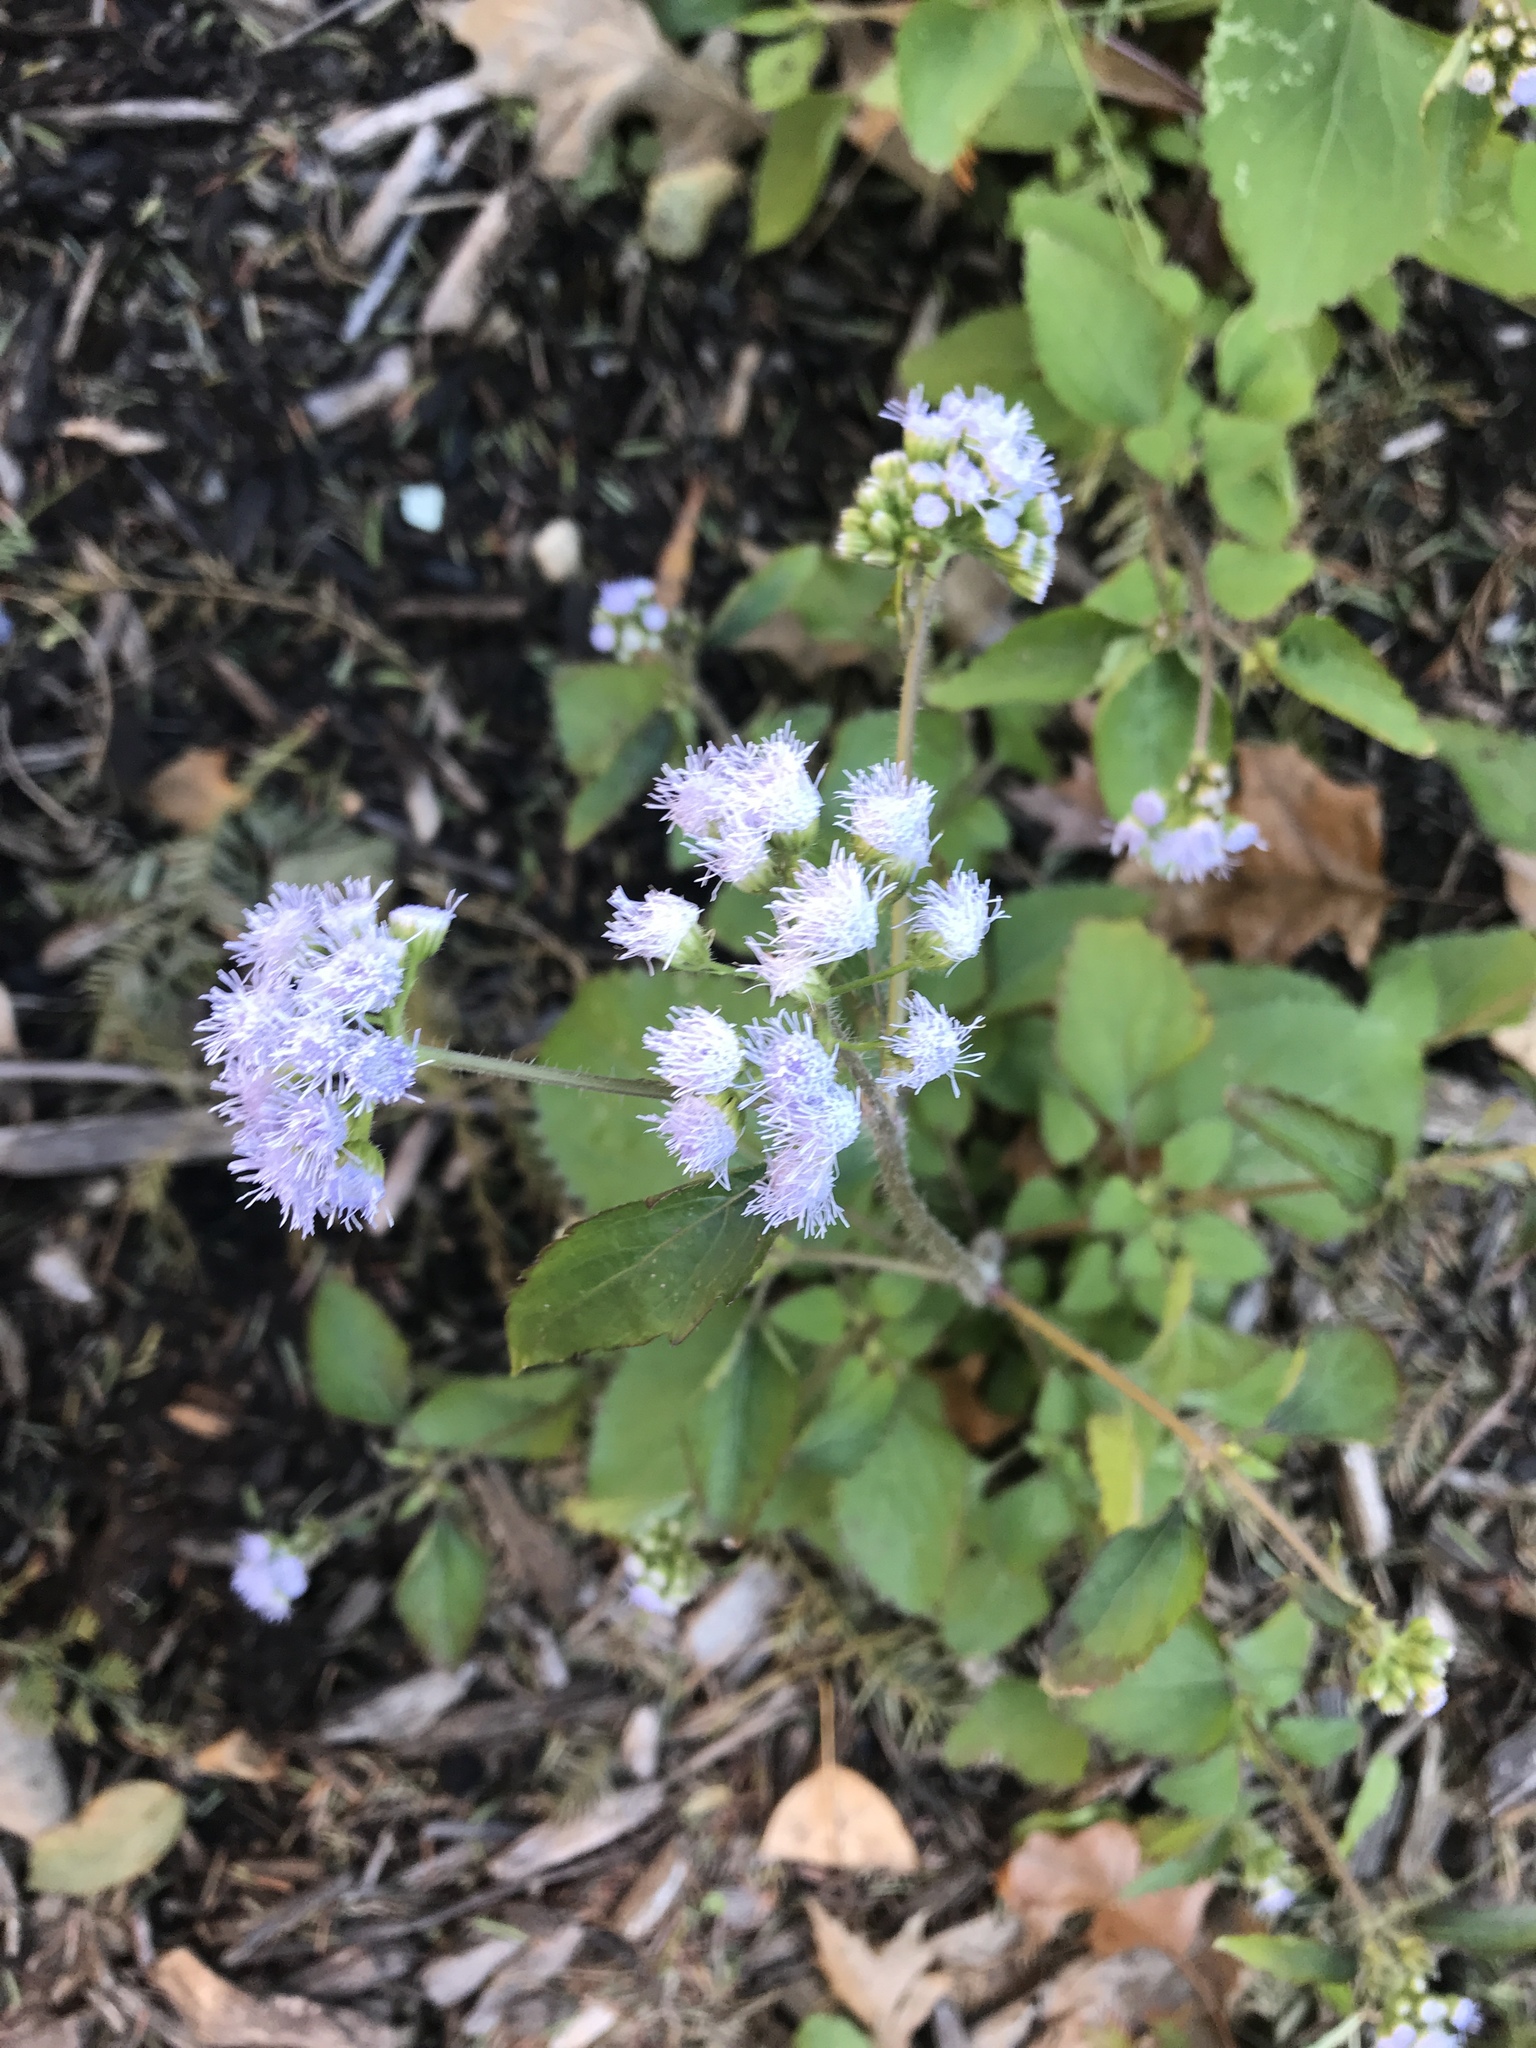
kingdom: Plantae
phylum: Tracheophyta
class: Magnoliopsida
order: Asterales
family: Asteraceae
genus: Conoclinium
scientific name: Conoclinium coelestinum
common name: Blue mistflower
